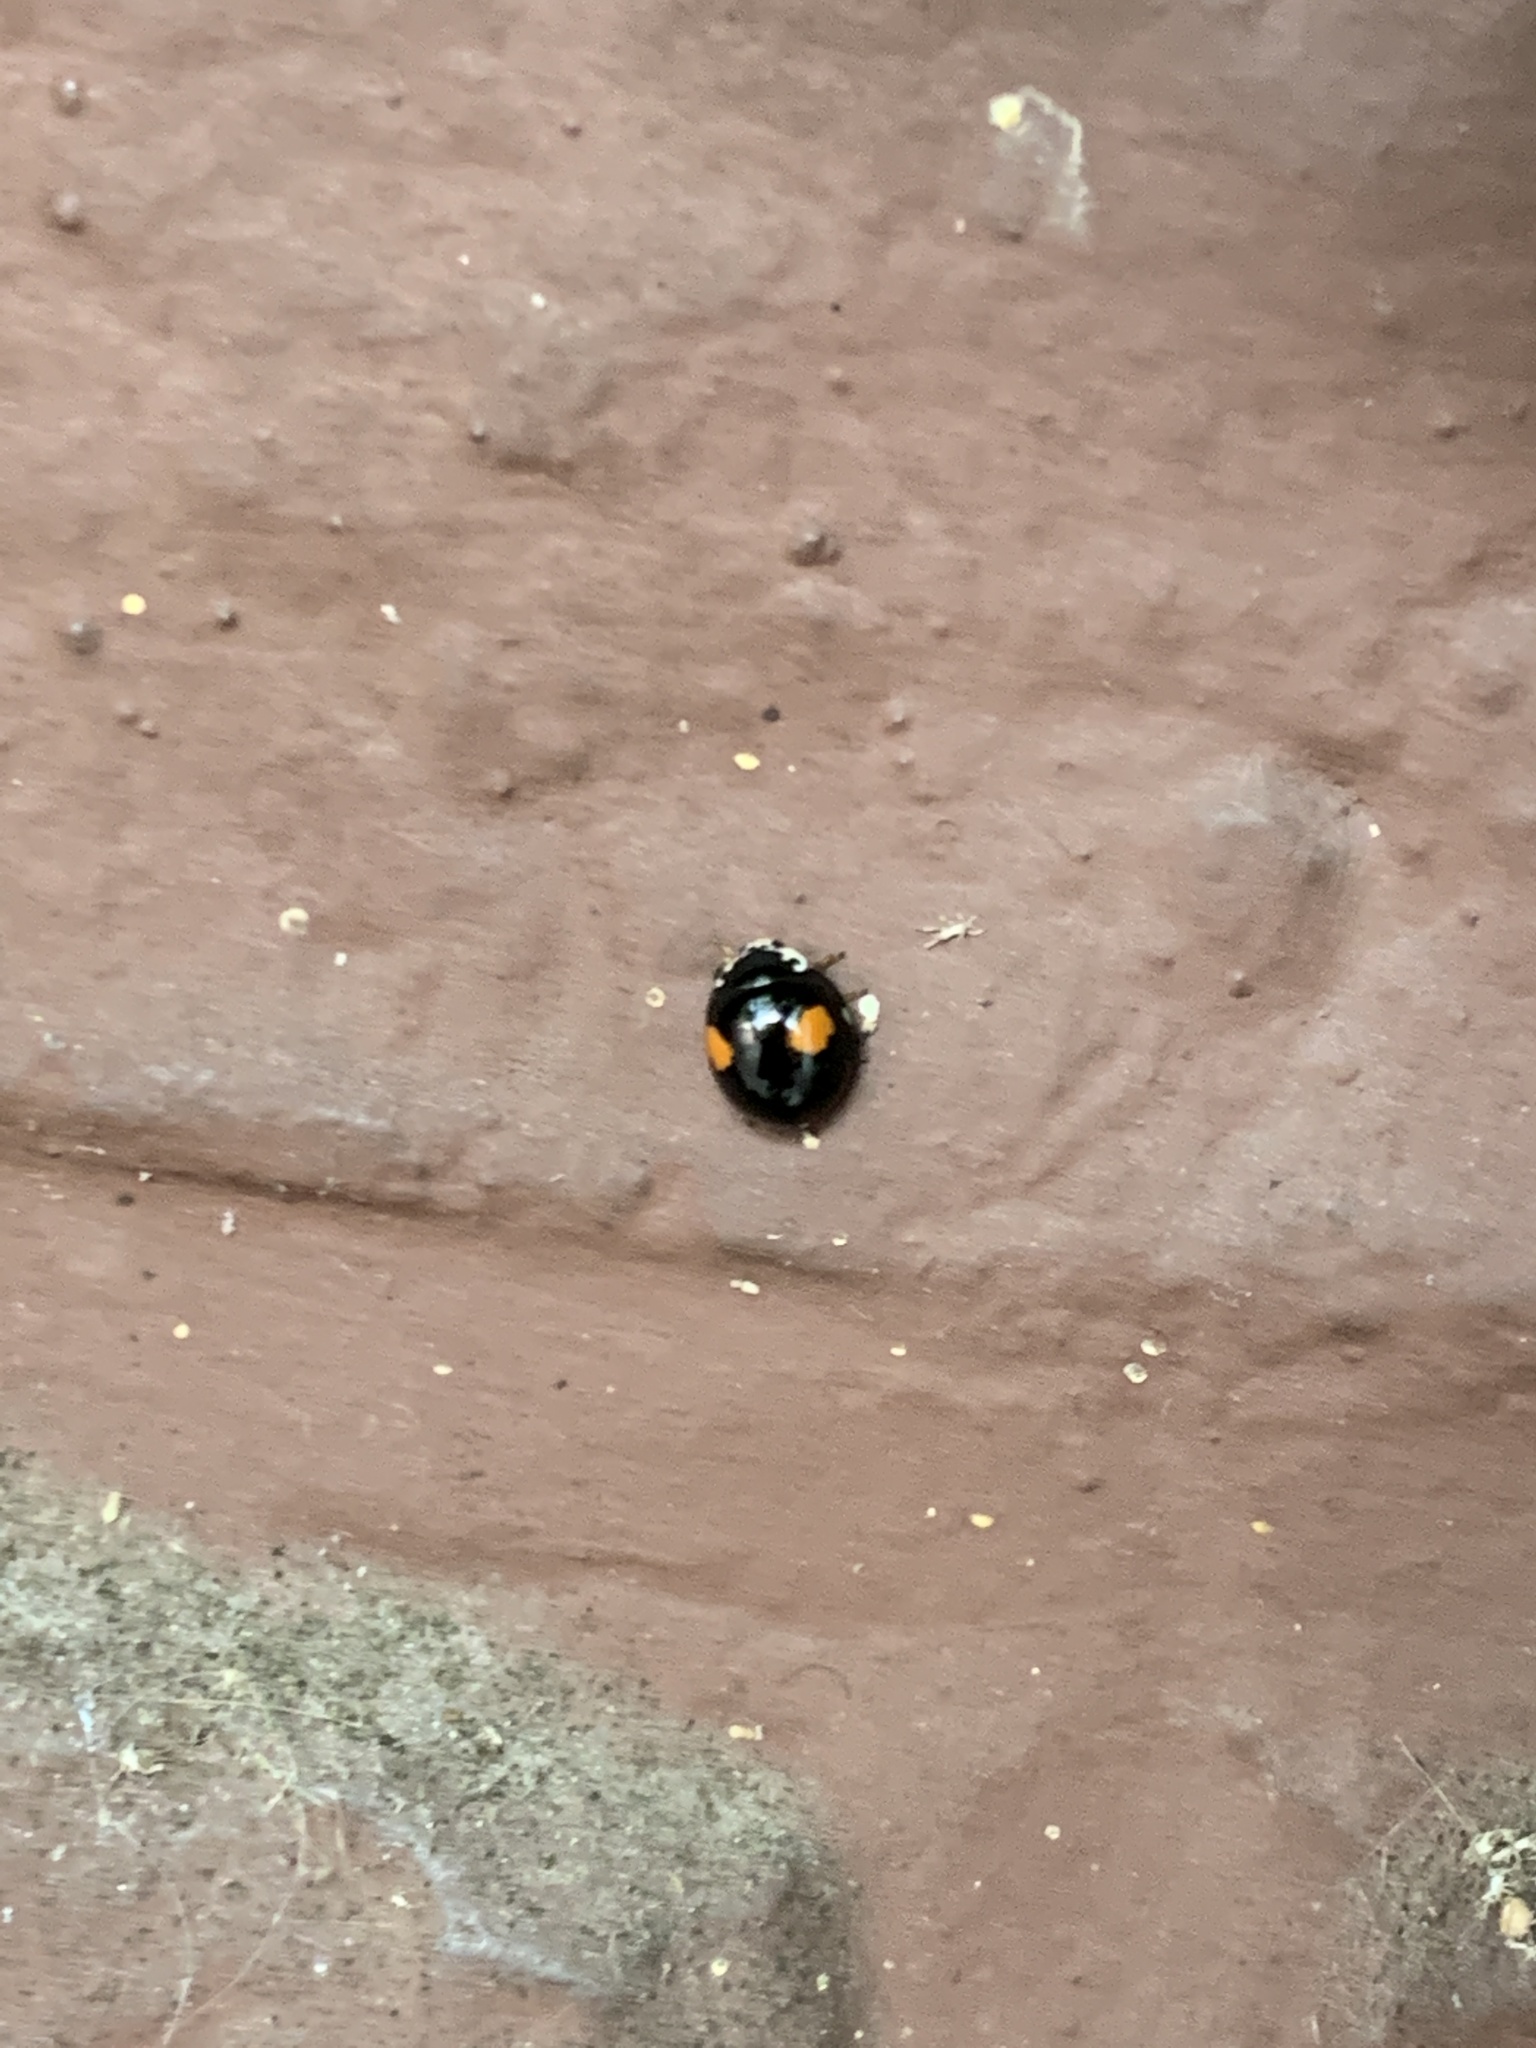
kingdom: Animalia
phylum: Arthropoda
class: Insecta
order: Coleoptera
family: Coccinellidae
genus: Olla
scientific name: Olla v-nigrum
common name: Ashy gray lady beetle
